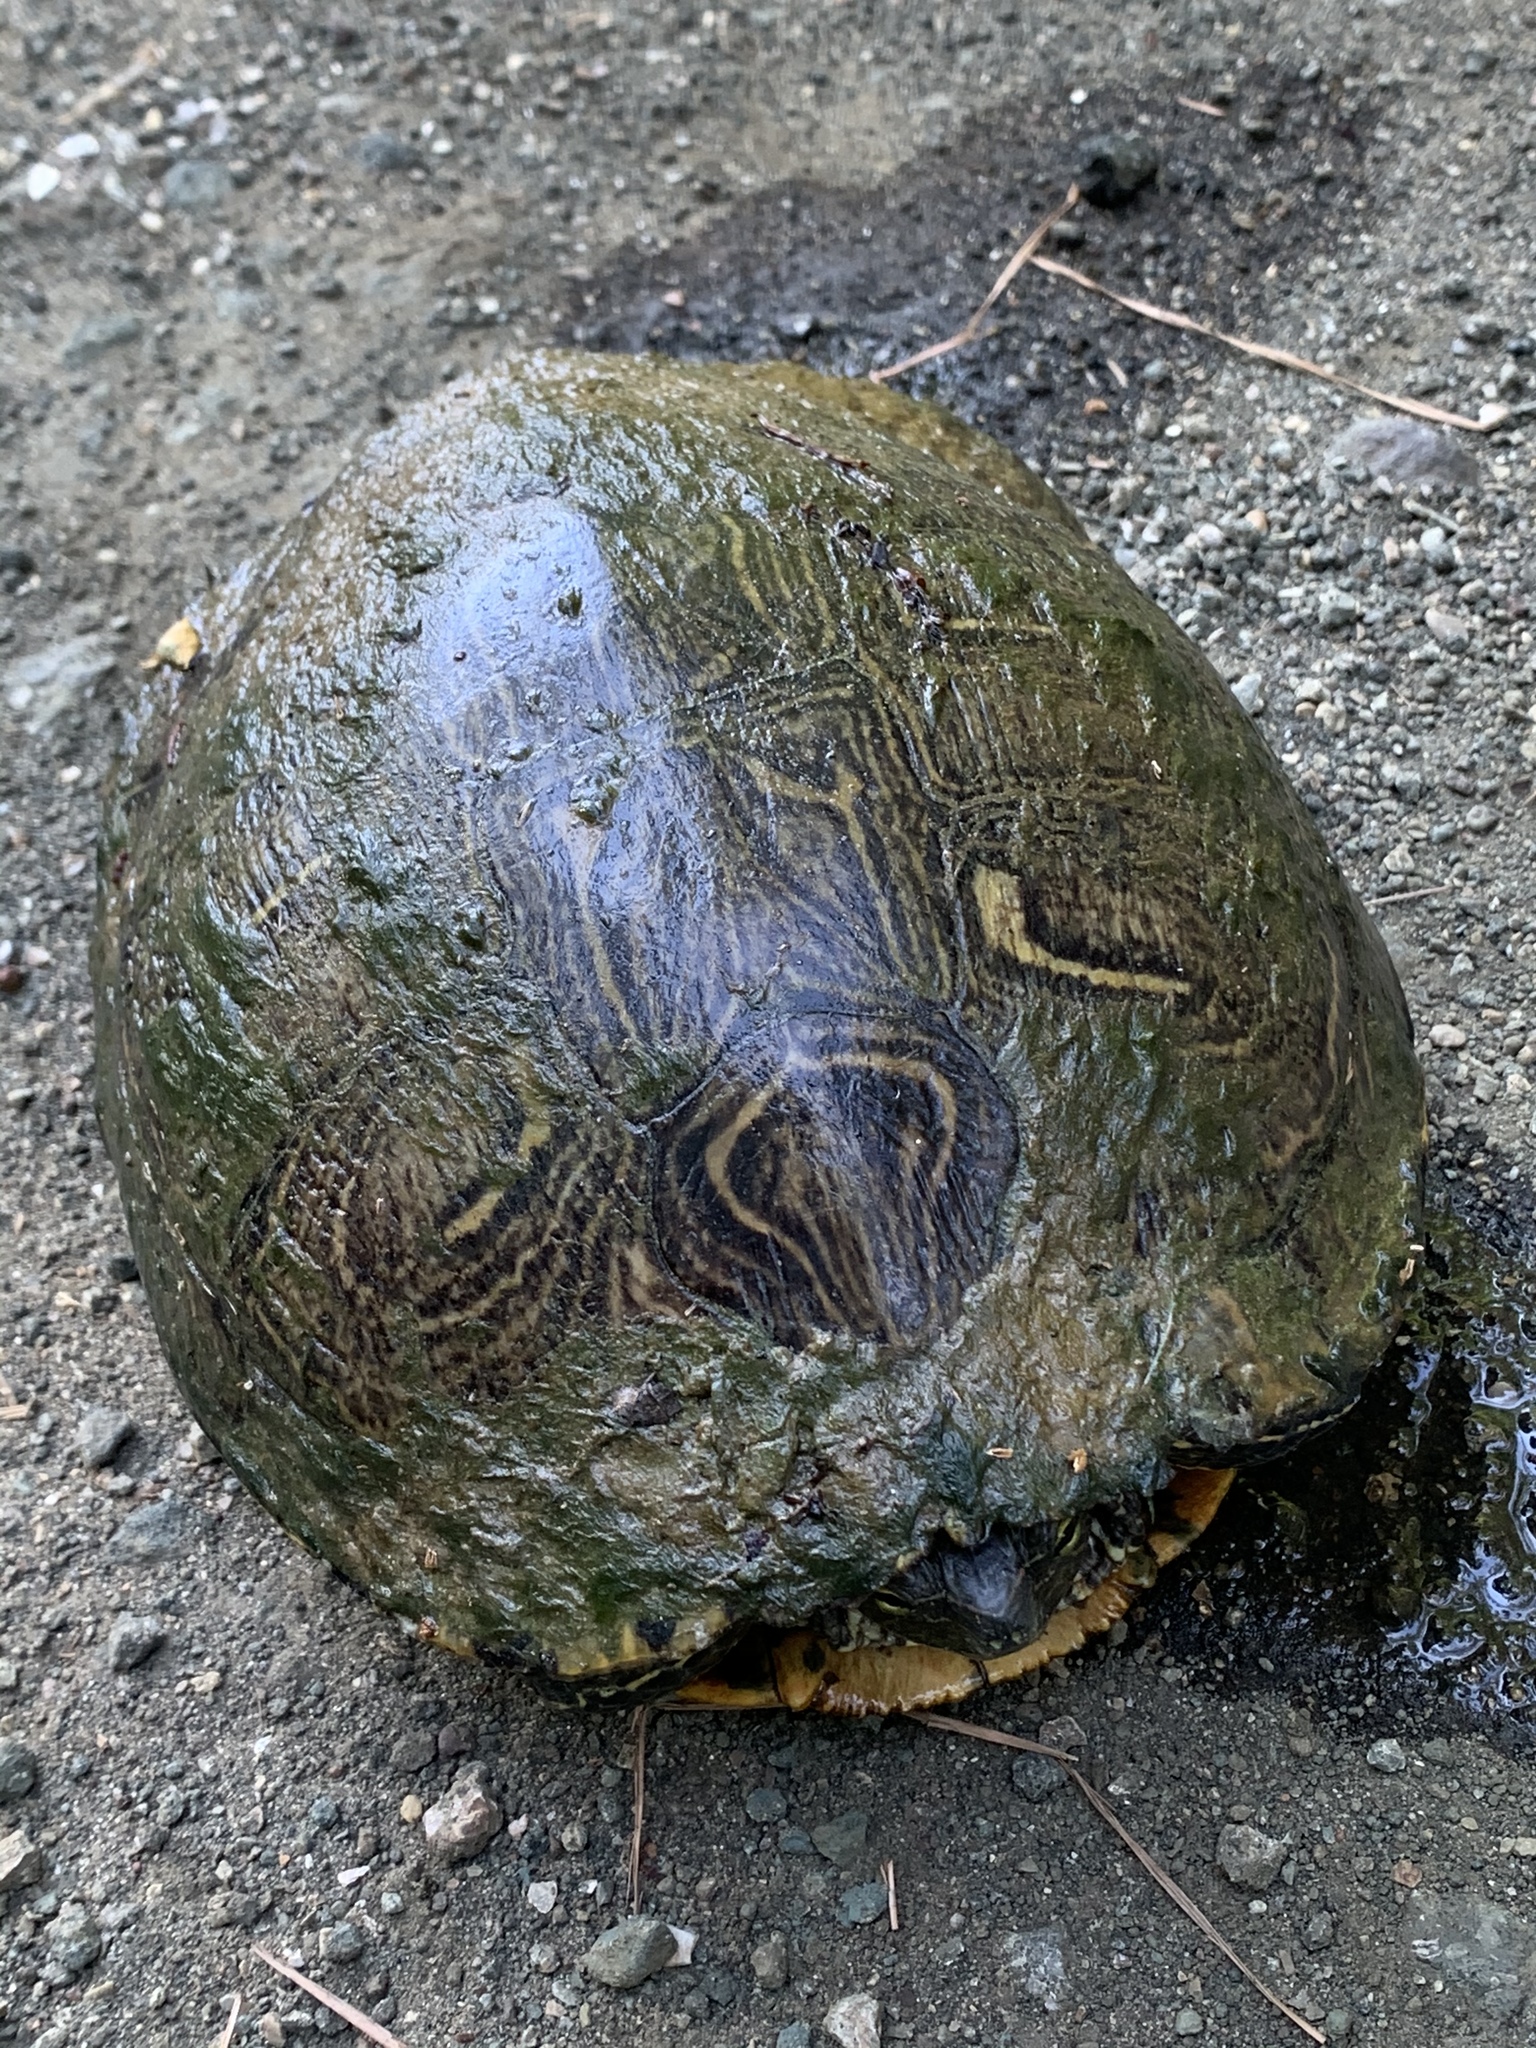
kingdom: Animalia
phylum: Chordata
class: Testudines
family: Emydidae
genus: Pseudemys
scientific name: Pseudemys concinna
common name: Eastern river cooter
